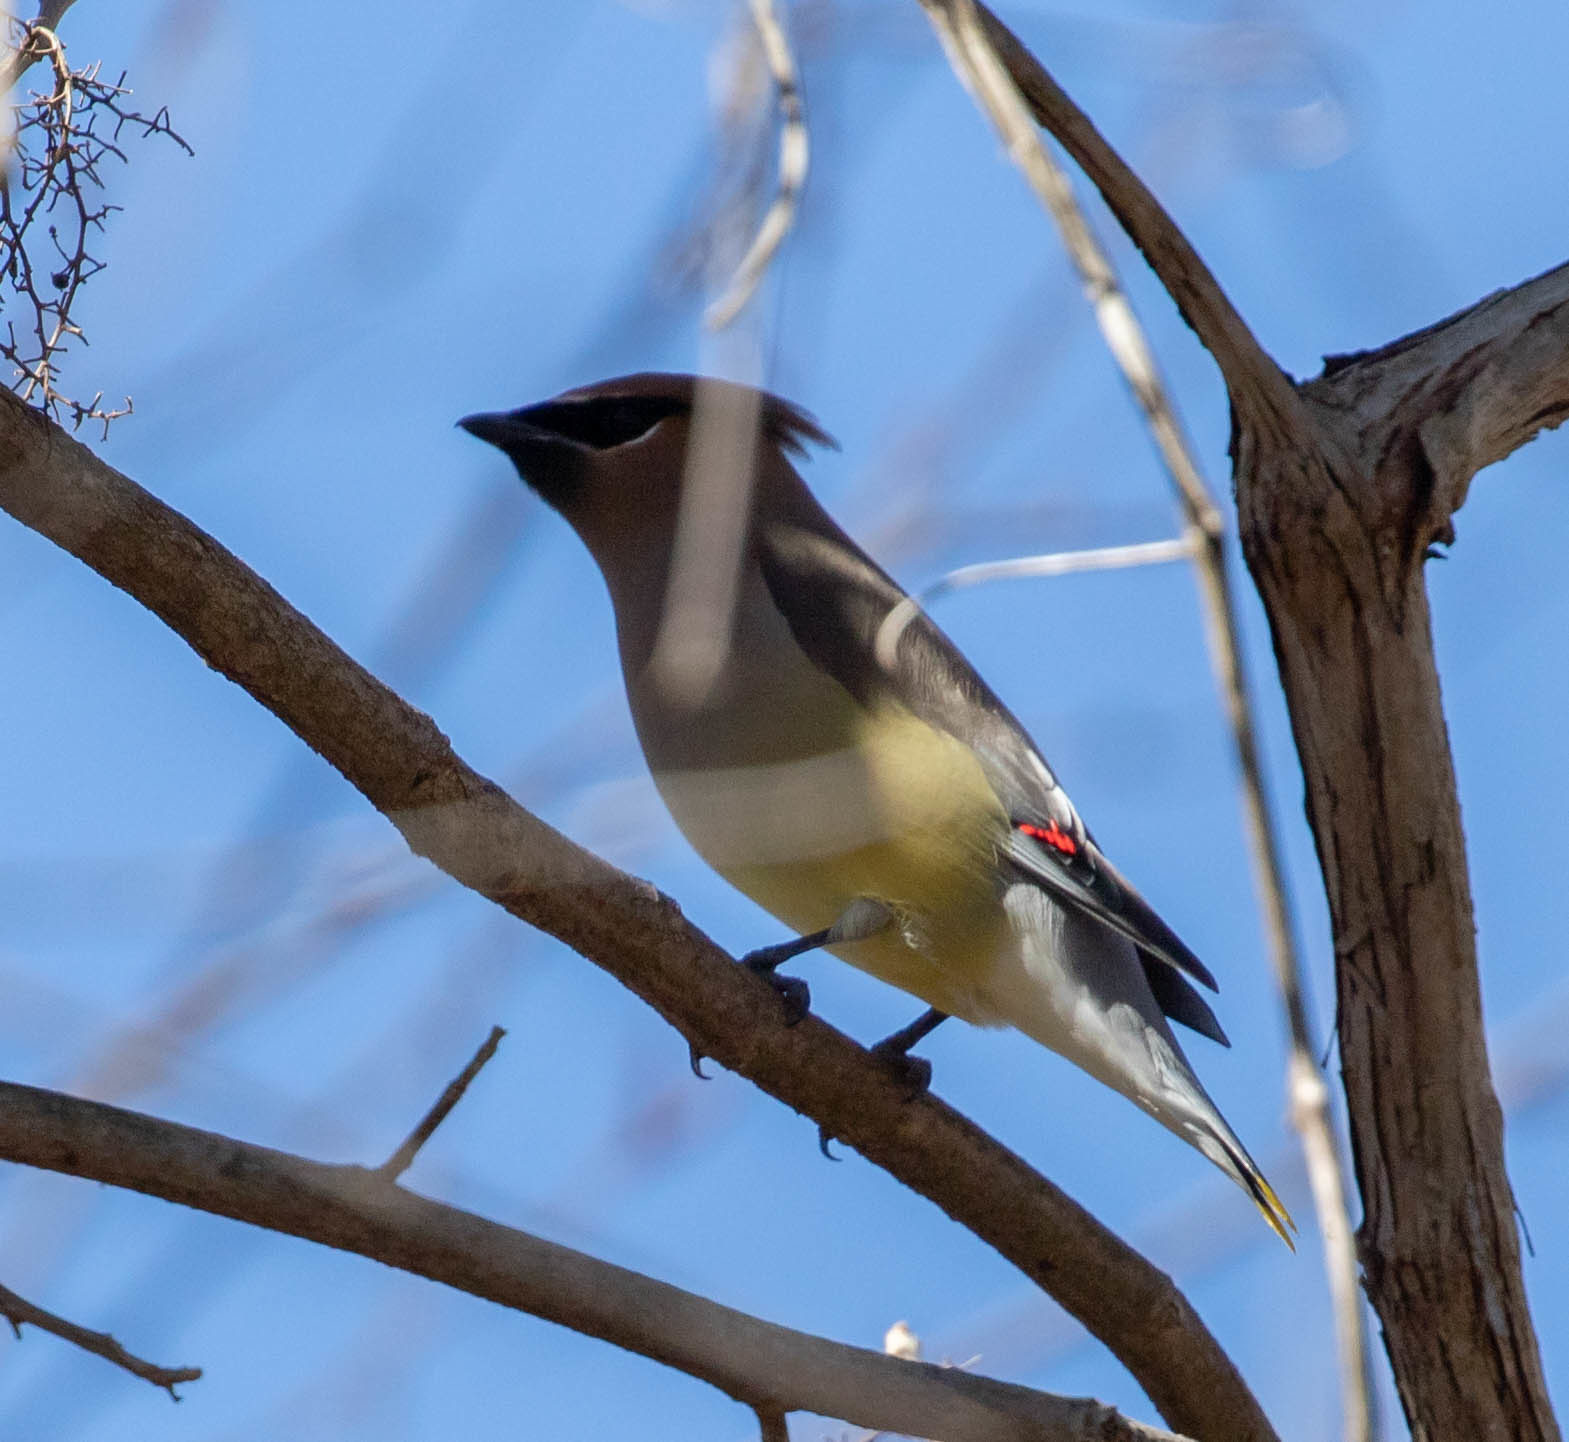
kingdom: Animalia
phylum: Chordata
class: Aves
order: Passeriformes
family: Bombycillidae
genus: Bombycilla
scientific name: Bombycilla cedrorum
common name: Cedar waxwing
